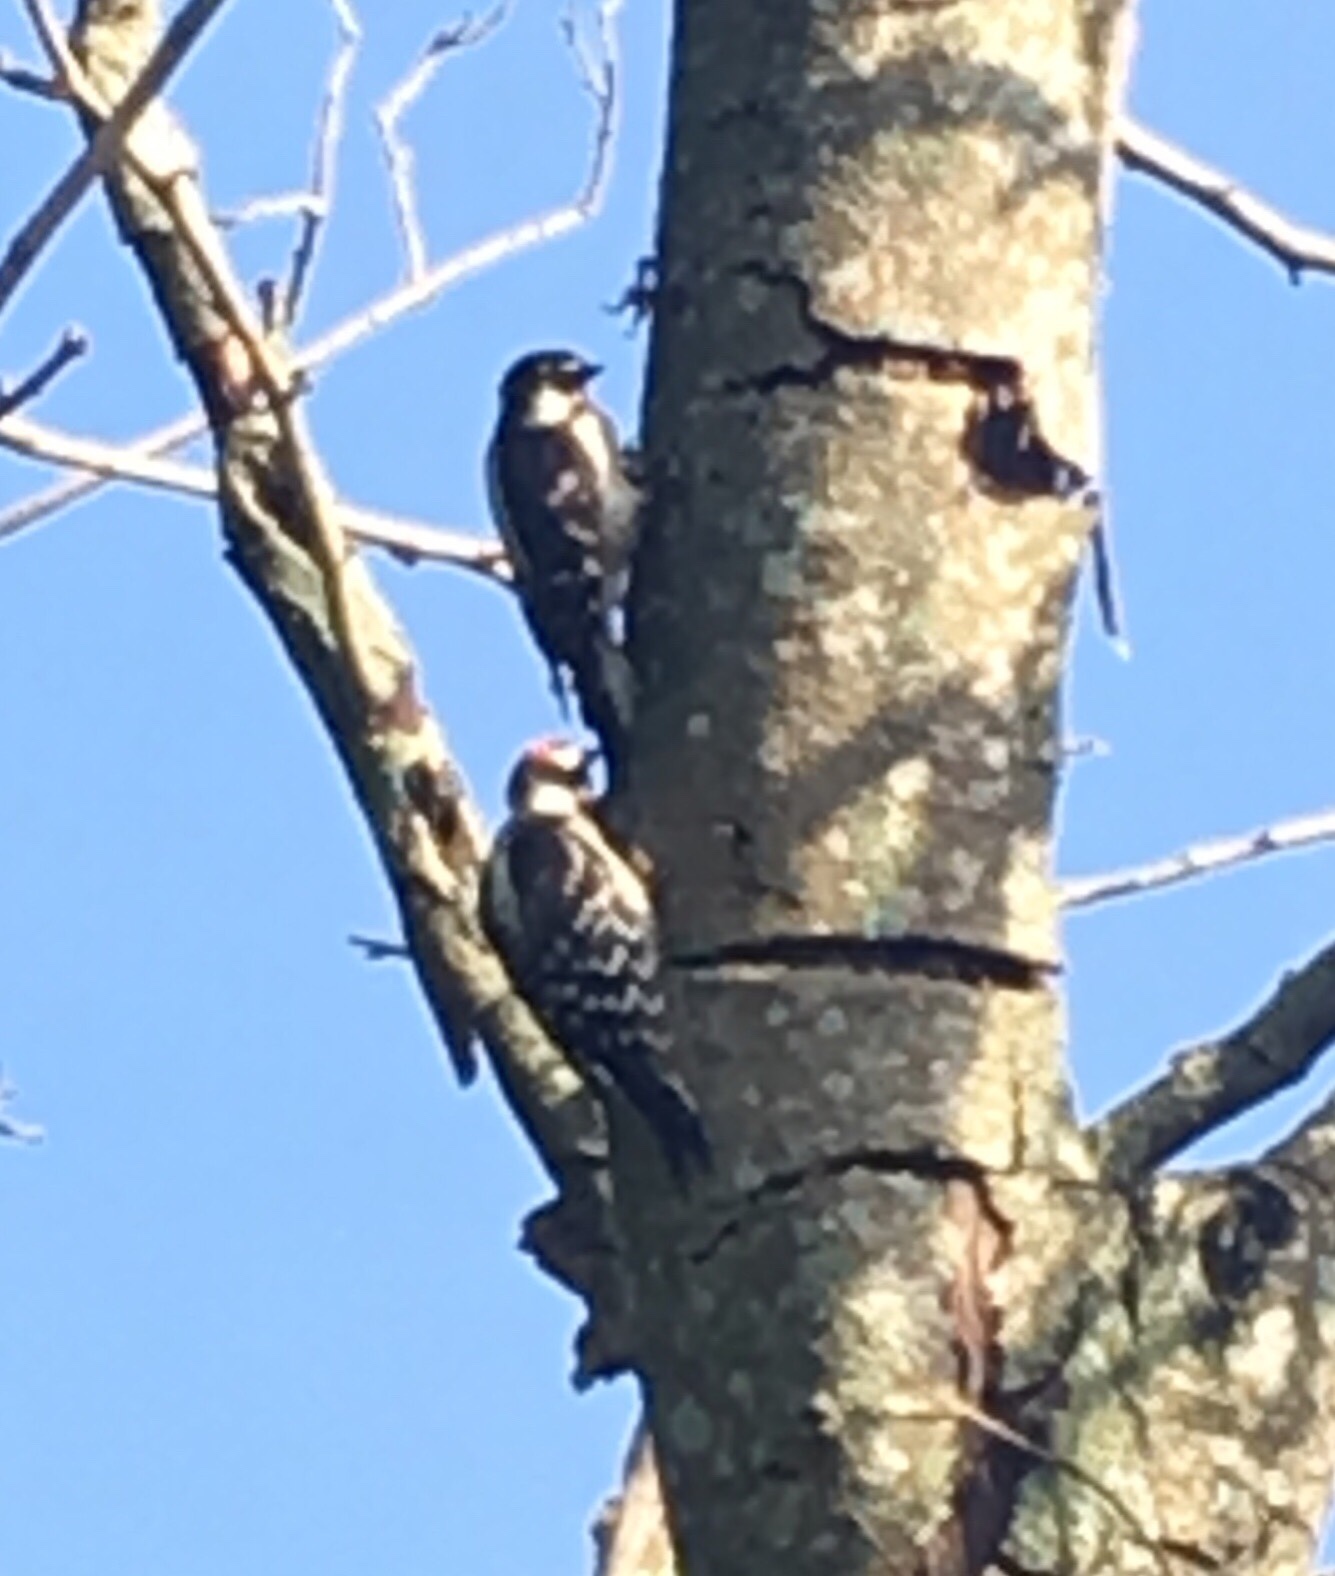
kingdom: Animalia
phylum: Chordata
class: Aves
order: Piciformes
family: Picidae
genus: Dryobates
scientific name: Dryobates pubescens
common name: Downy woodpecker
